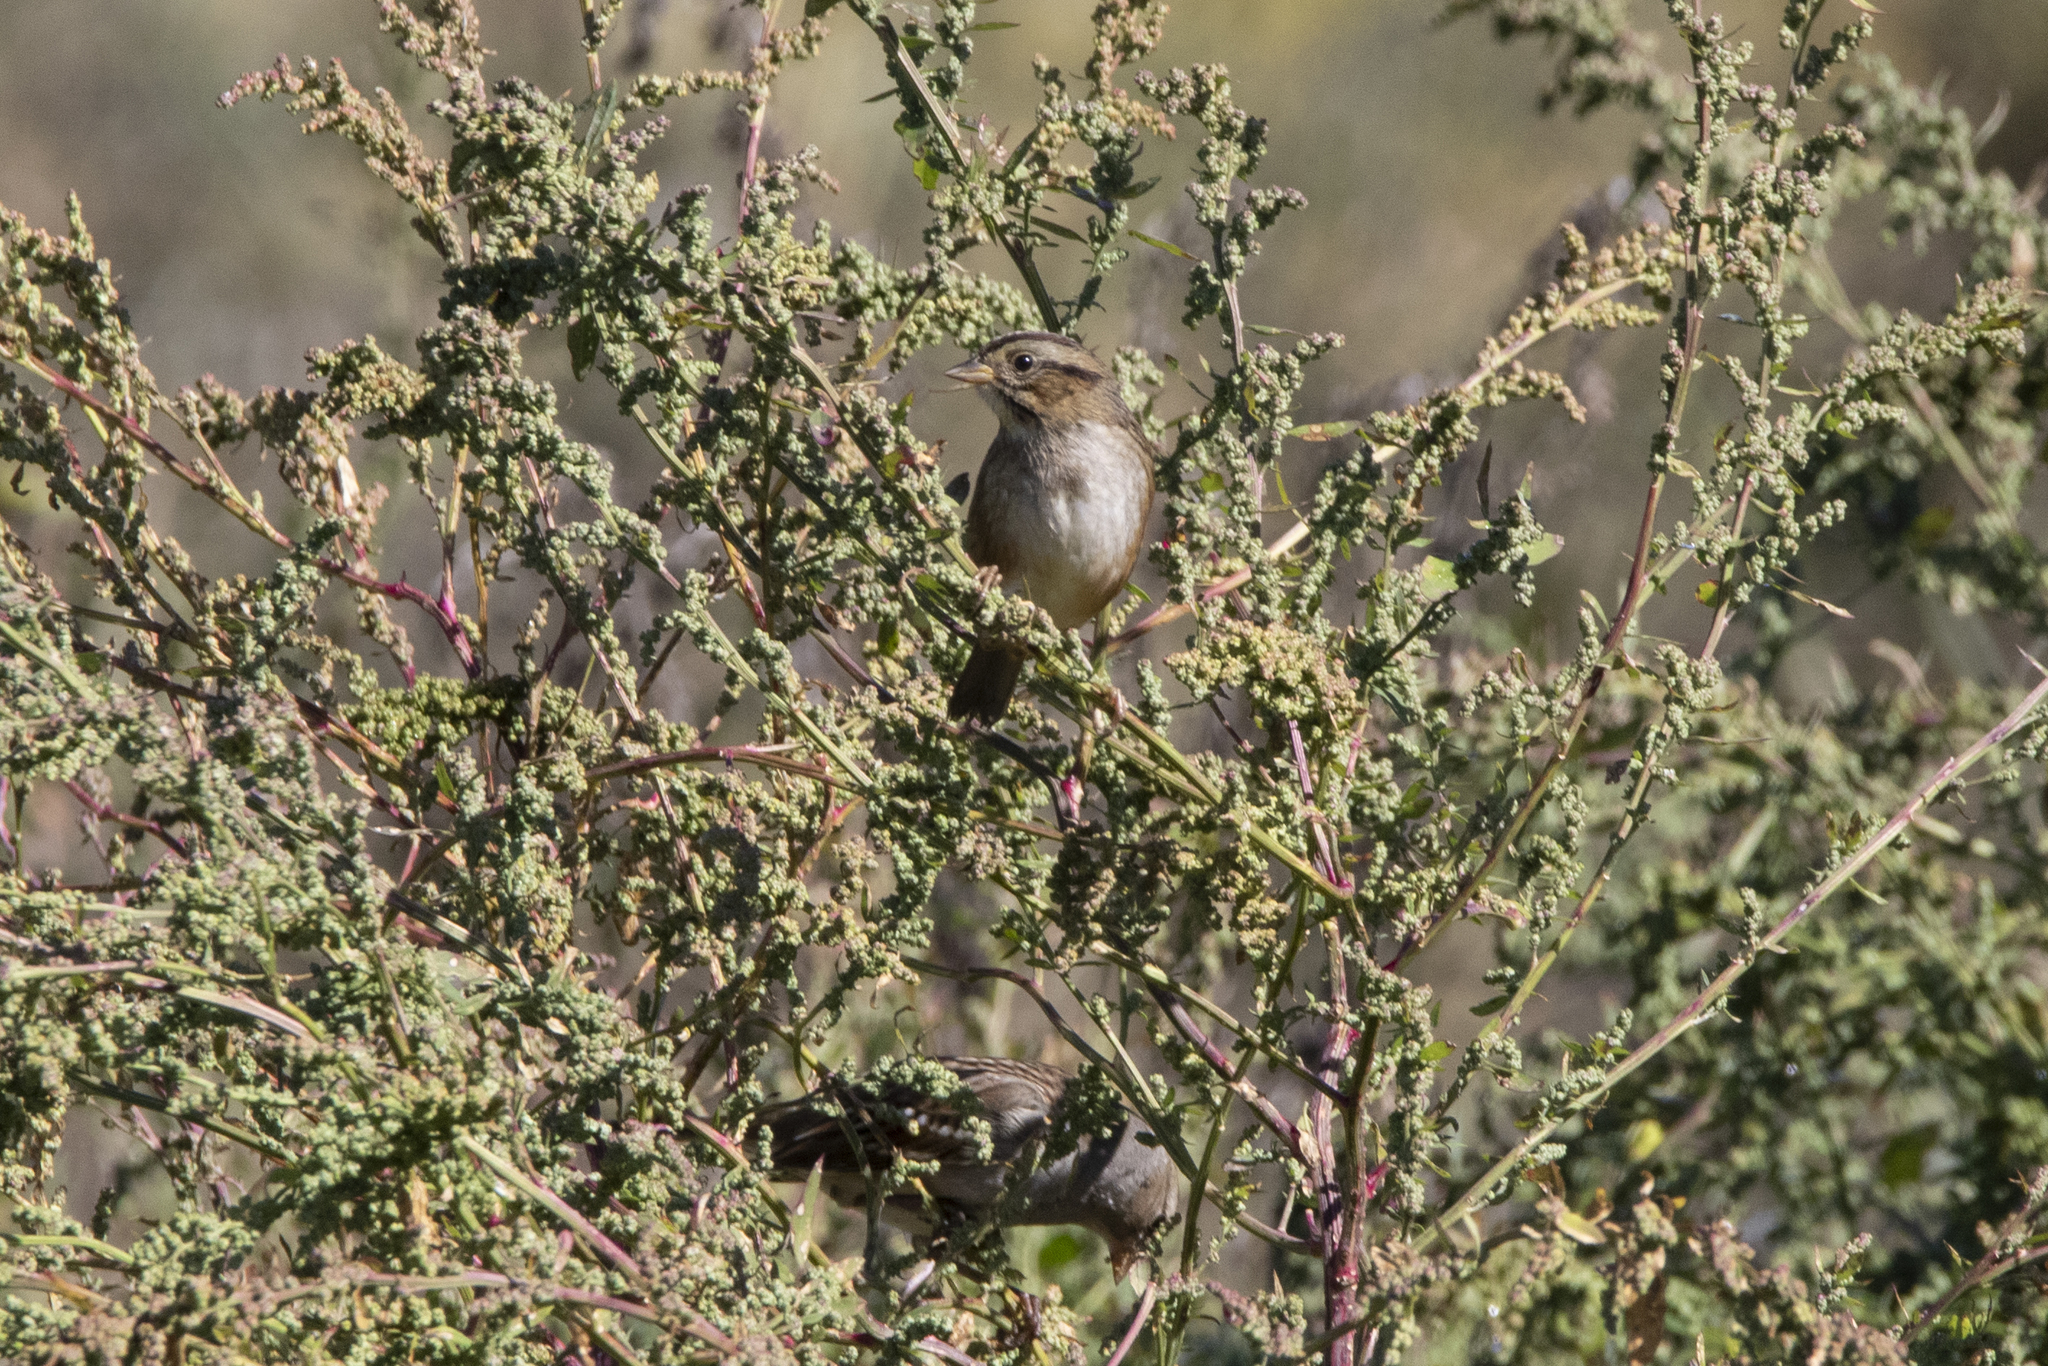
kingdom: Animalia
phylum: Chordata
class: Aves
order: Passeriformes
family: Passerellidae
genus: Melospiza
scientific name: Melospiza georgiana
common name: Swamp sparrow
